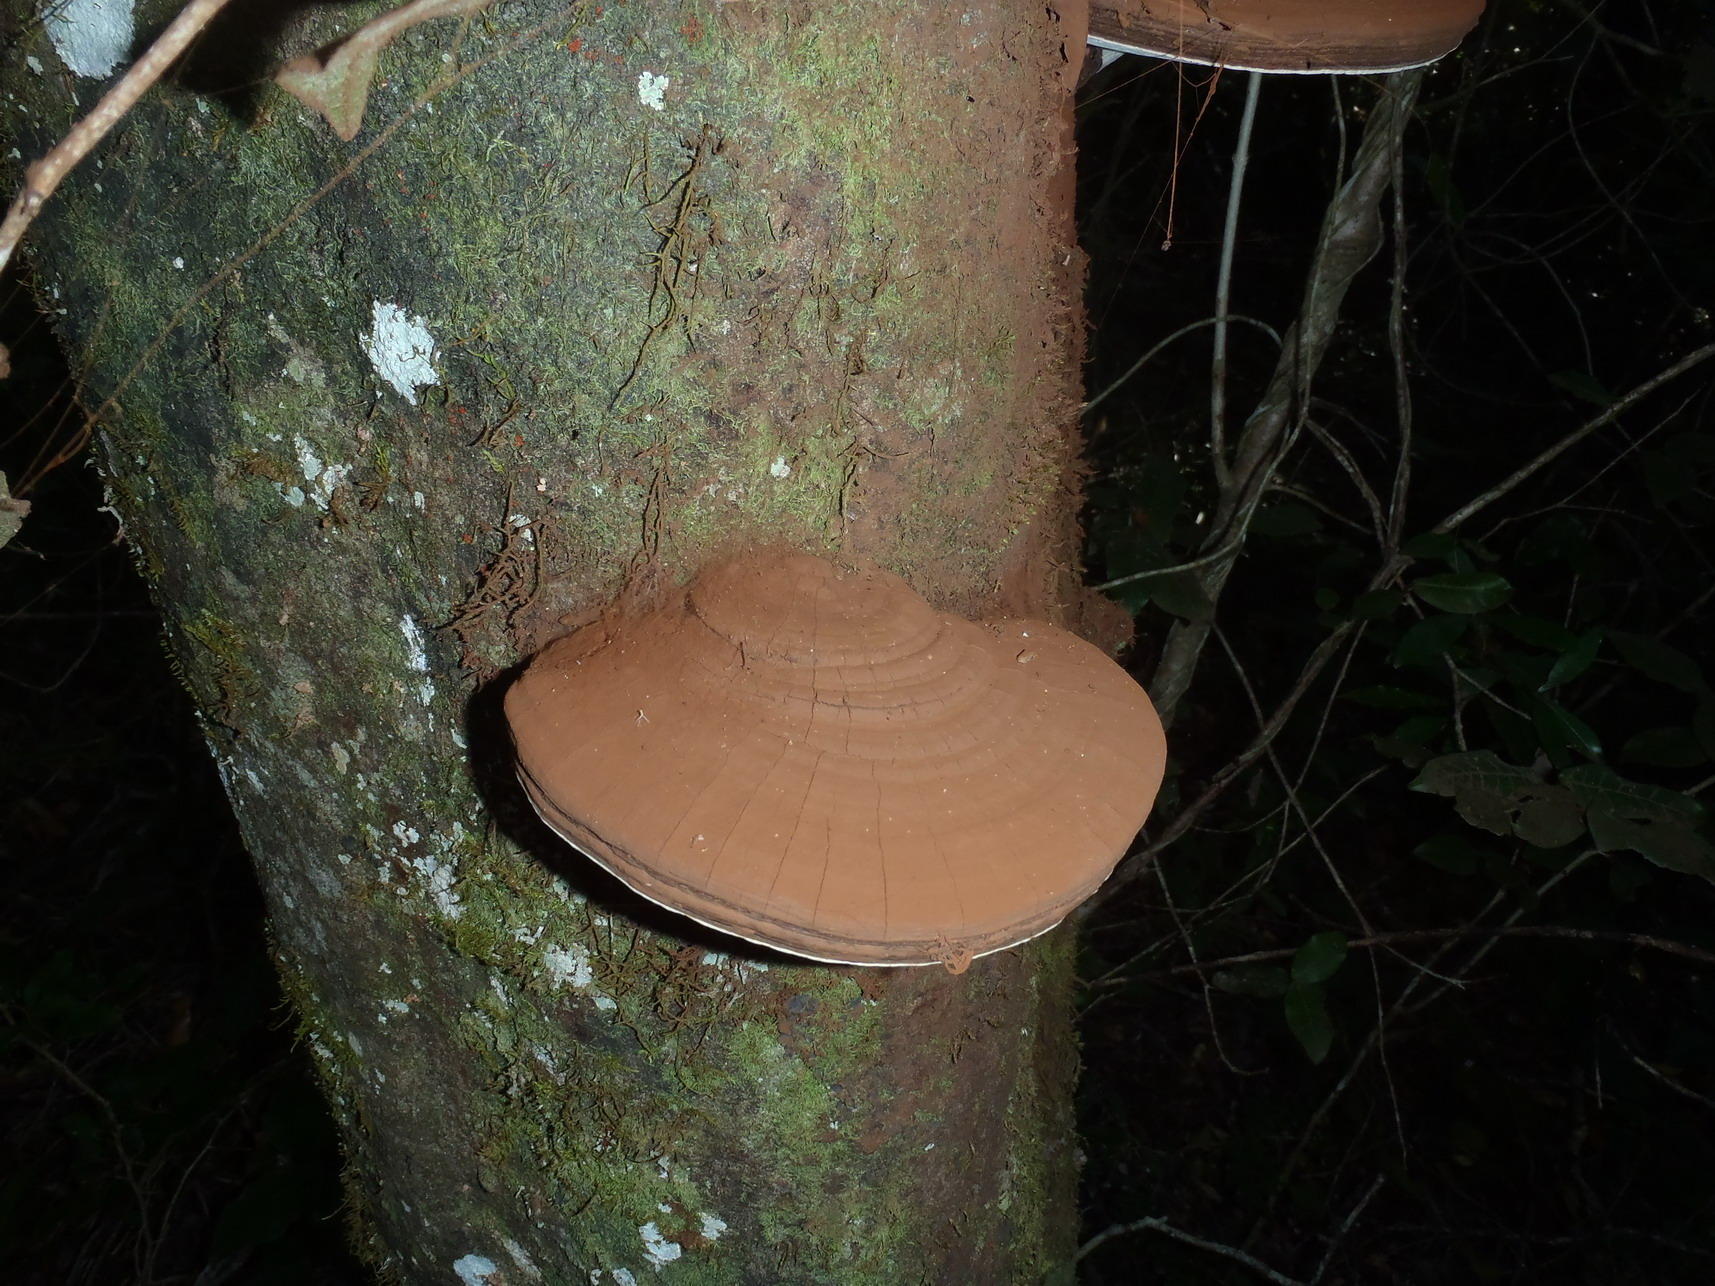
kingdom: Fungi
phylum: Basidiomycota
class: Agaricomycetes
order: Polyporales
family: Polyporaceae
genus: Ganoderma
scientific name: Ganoderma applanatum
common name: Artist's bracket
